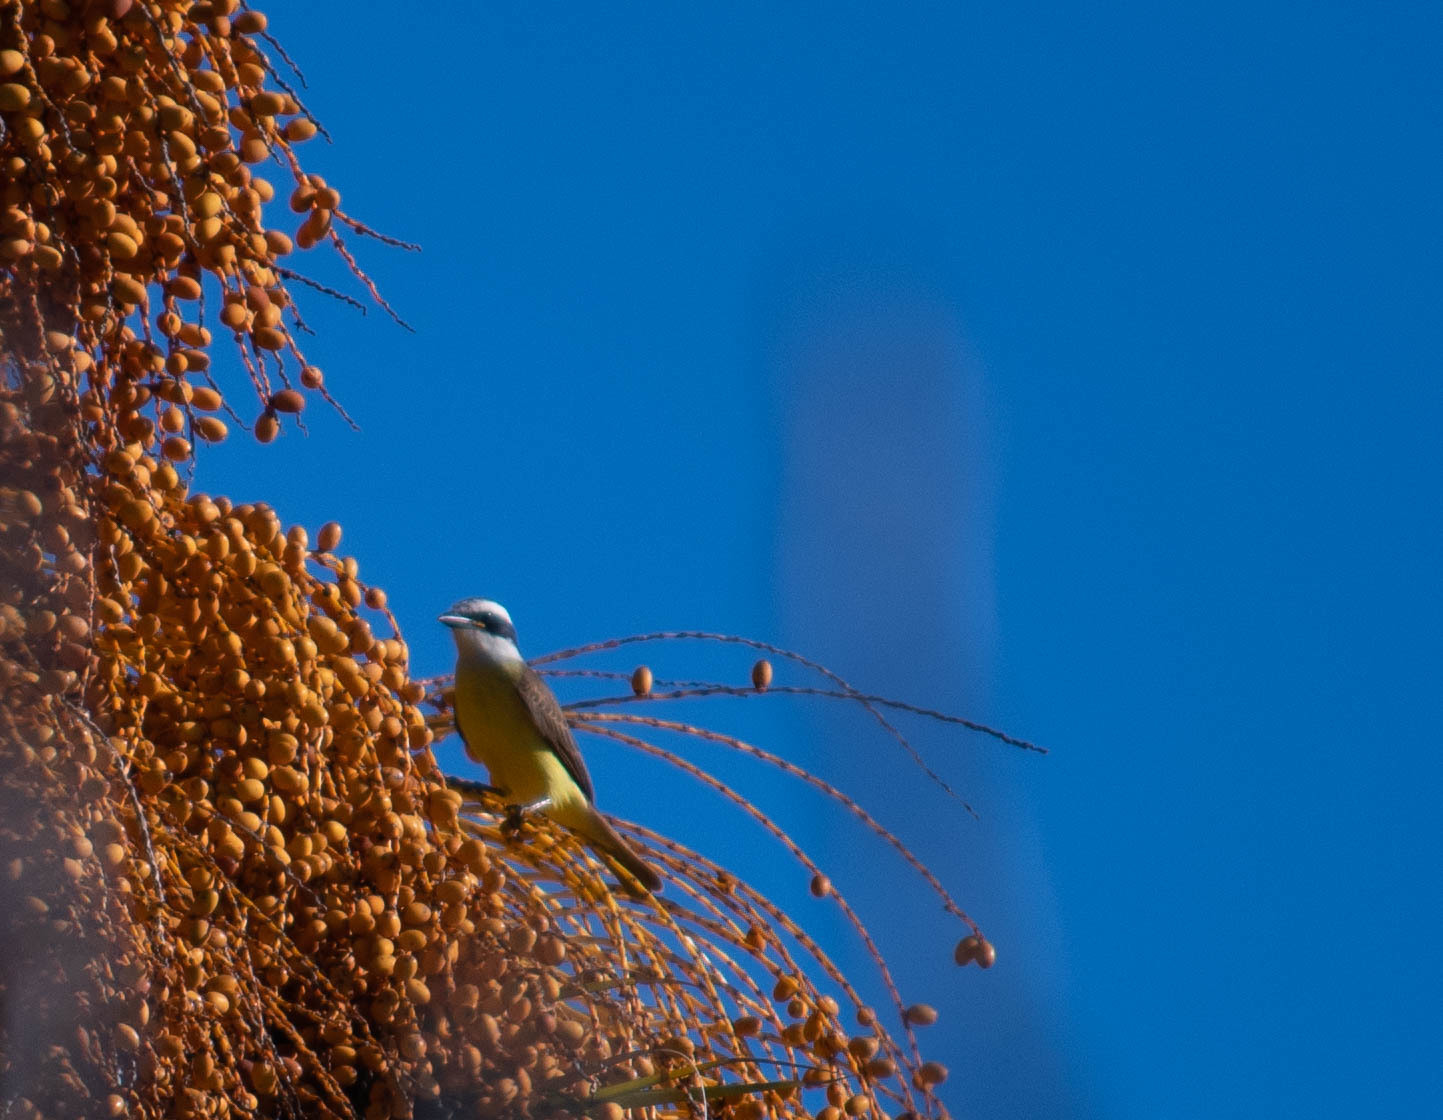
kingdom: Animalia
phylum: Chordata
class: Aves
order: Passeriformes
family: Tyrannidae
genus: Pitangus
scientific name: Pitangus sulphuratus
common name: Great kiskadee
